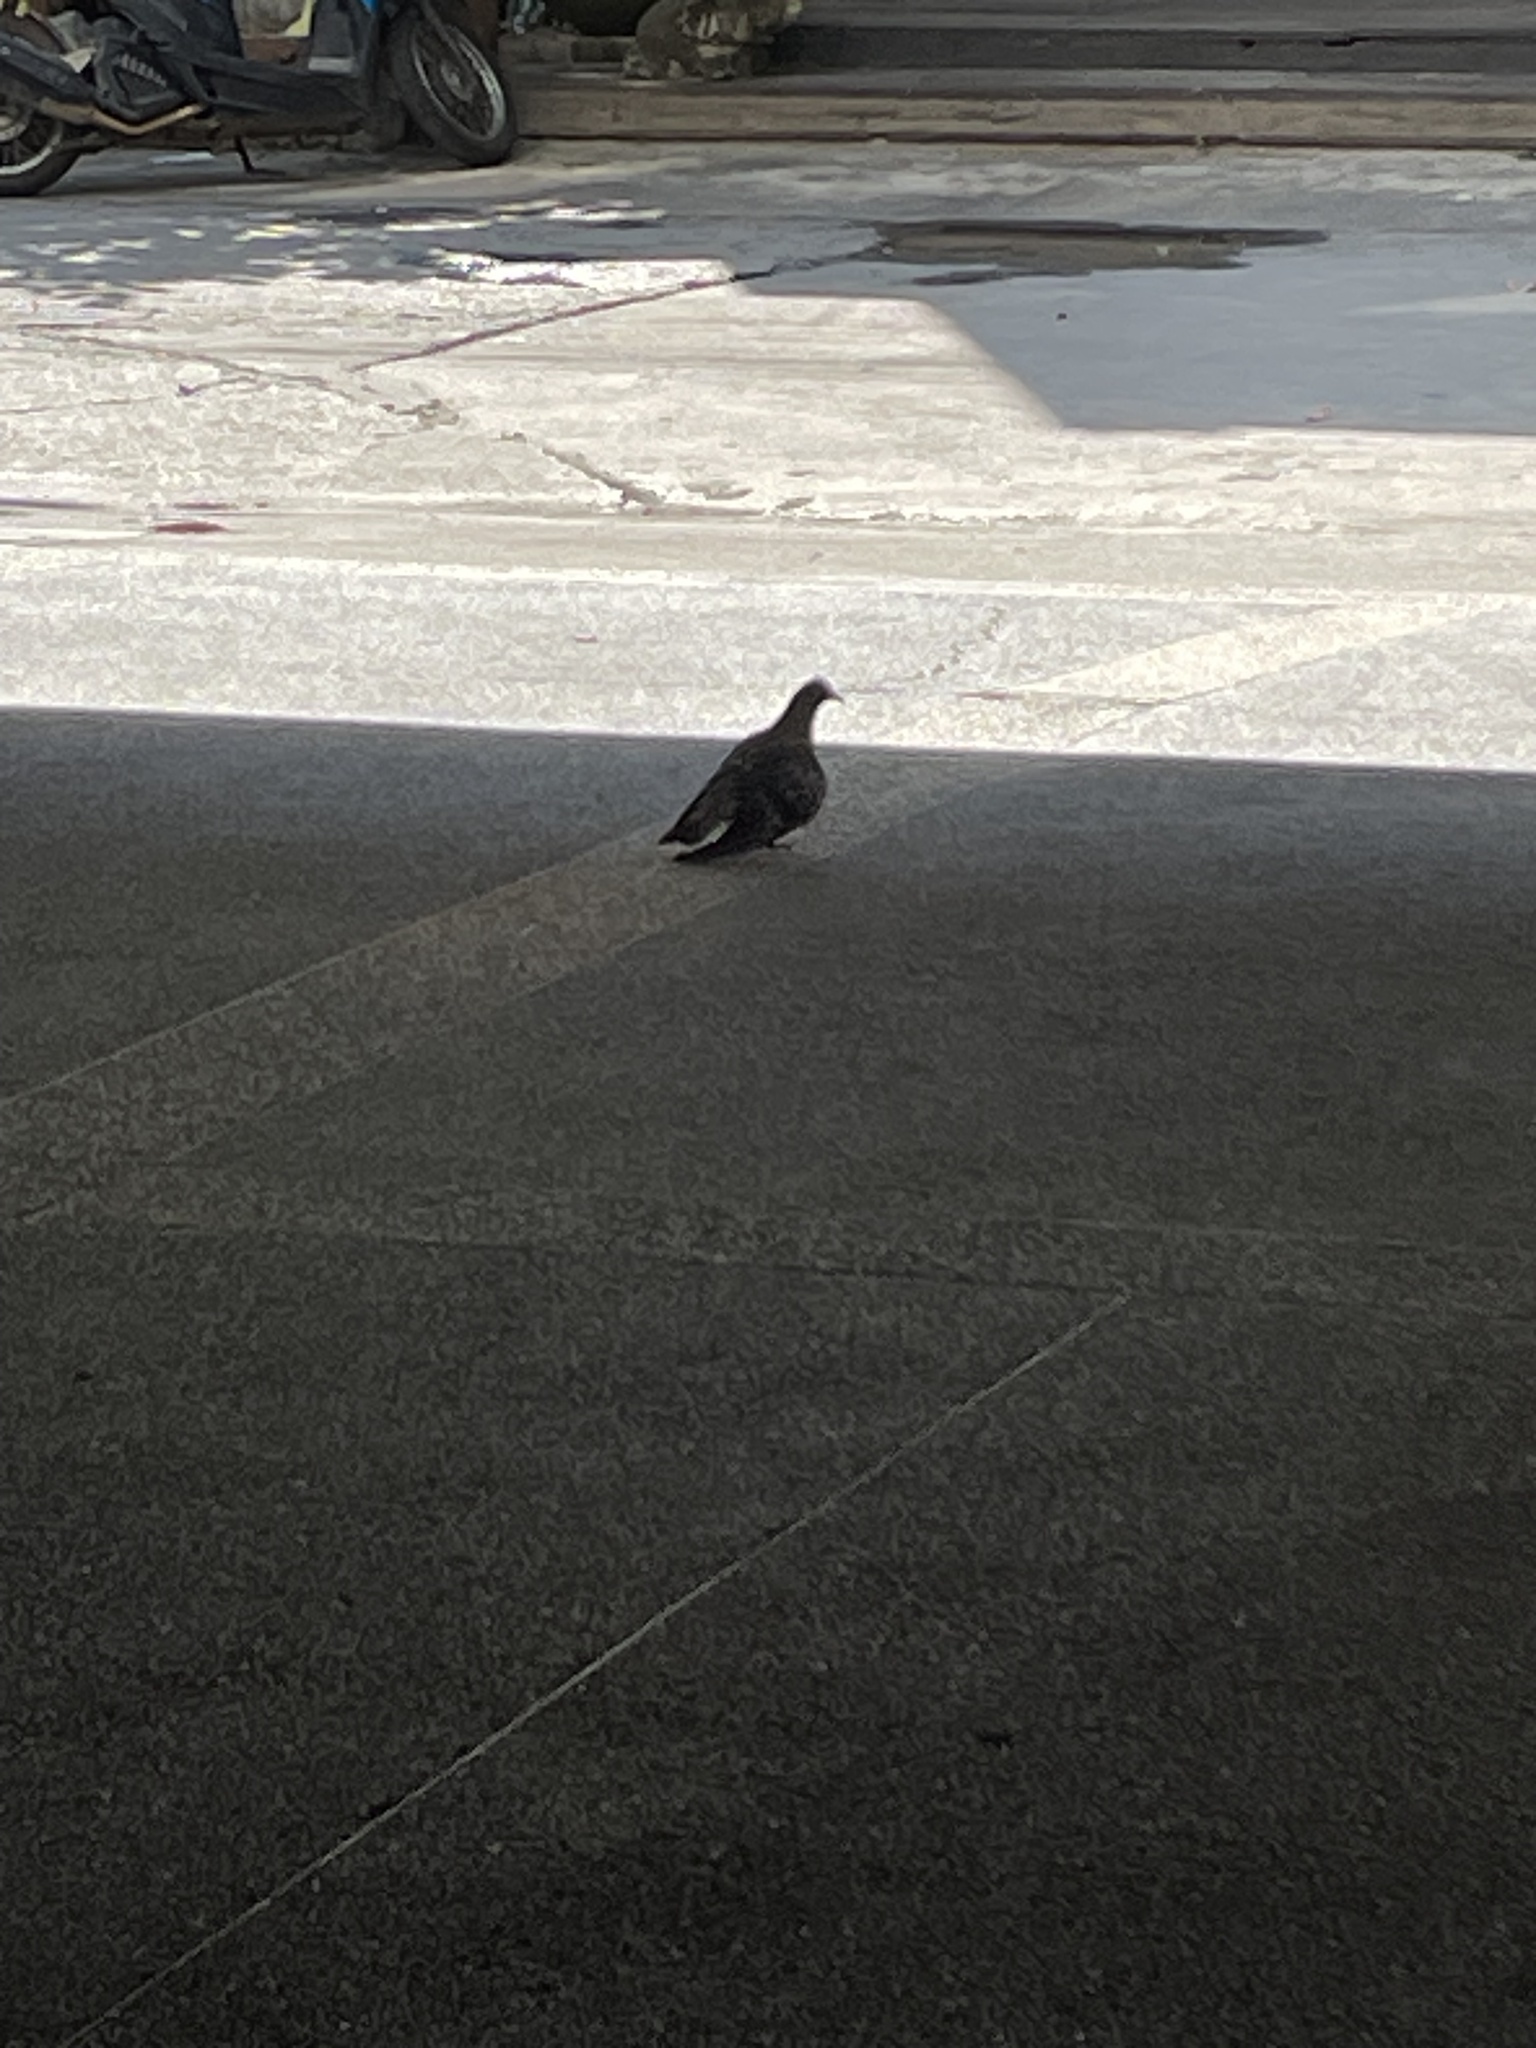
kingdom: Animalia
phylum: Chordata
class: Aves
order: Columbiformes
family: Columbidae
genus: Columba
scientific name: Columba livia
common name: Rock pigeon
